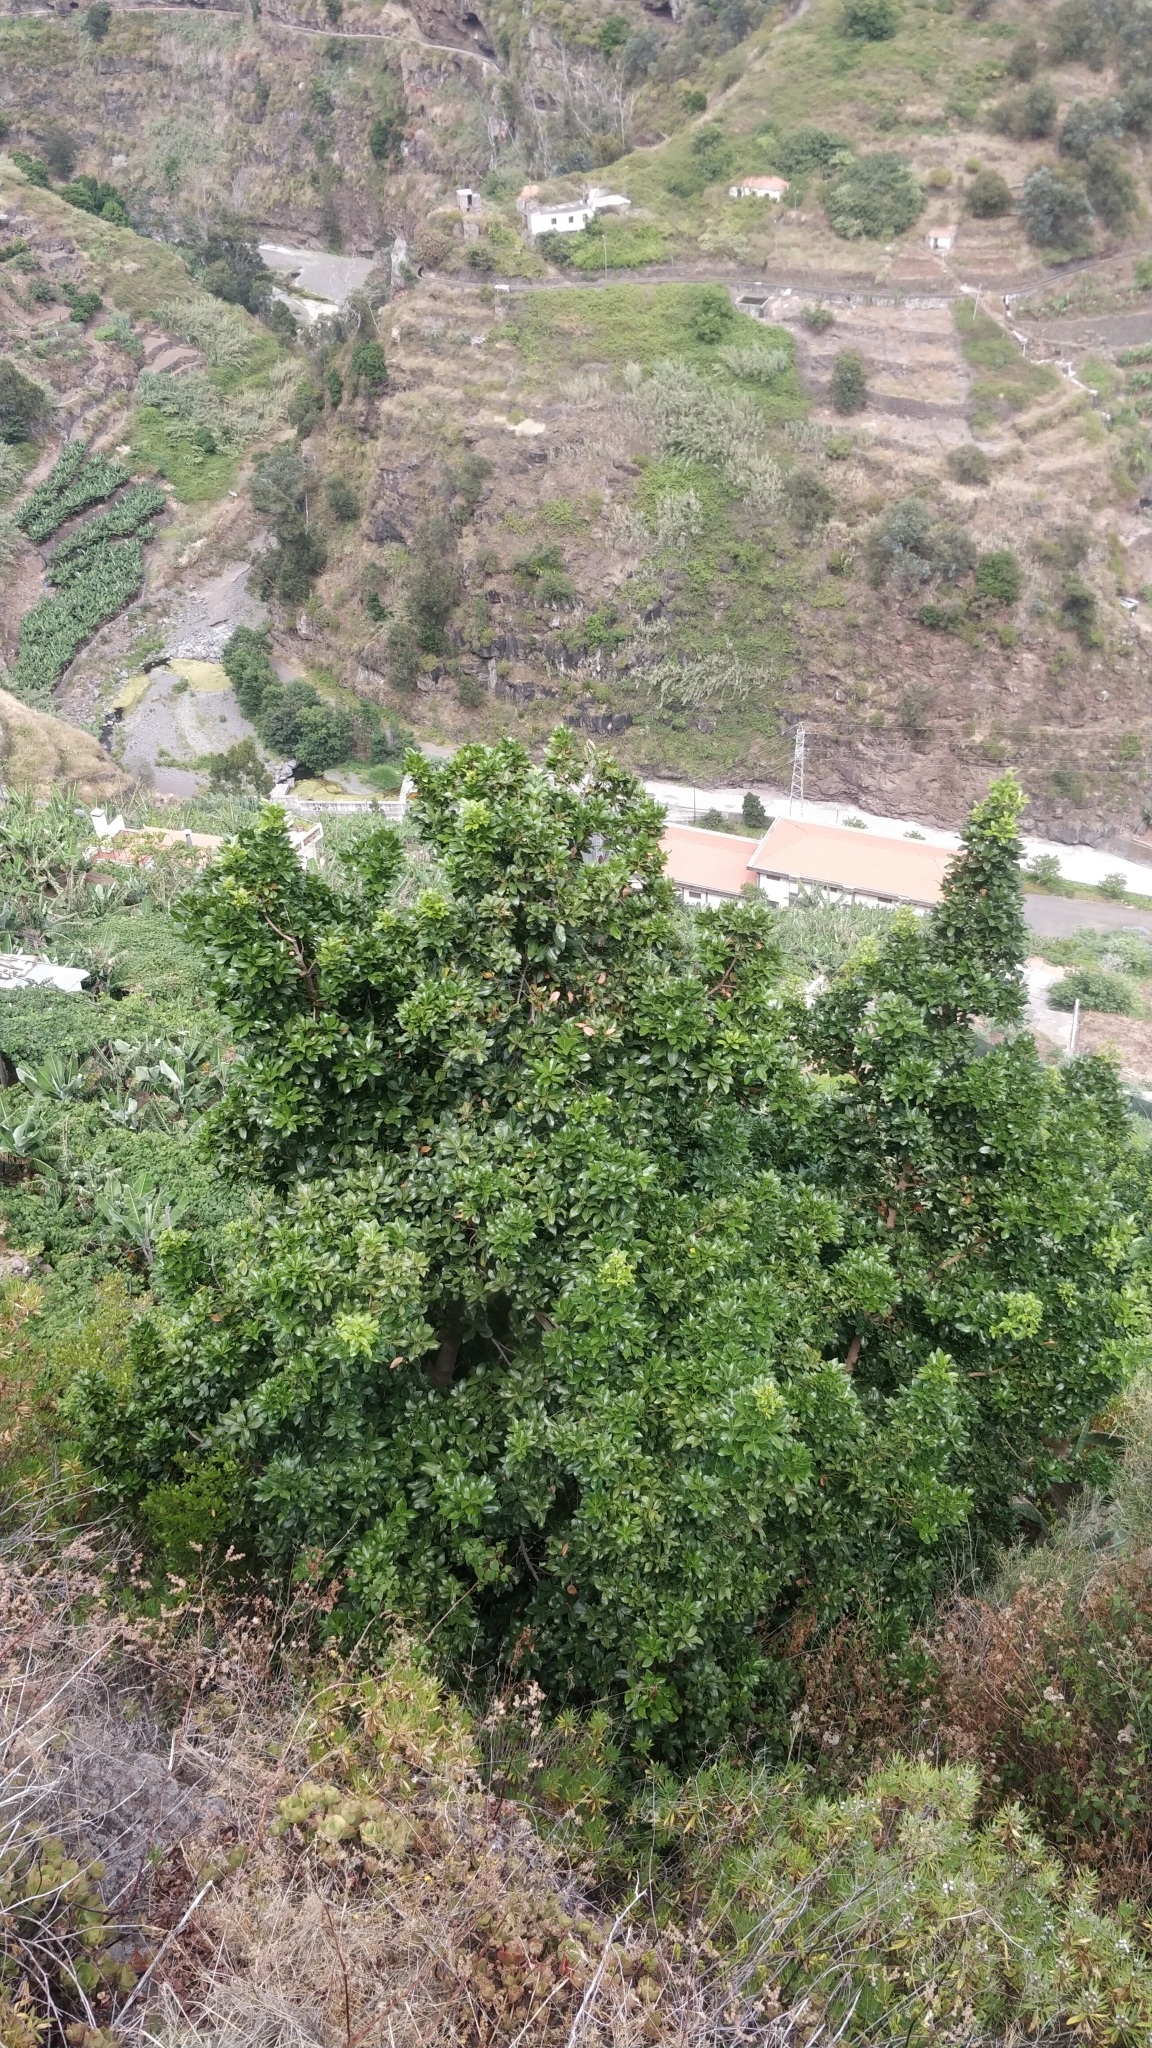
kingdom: Plantae
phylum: Tracheophyta
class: Magnoliopsida
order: Laurales
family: Lauraceae
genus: Apollonias
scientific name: Apollonias barbujana
